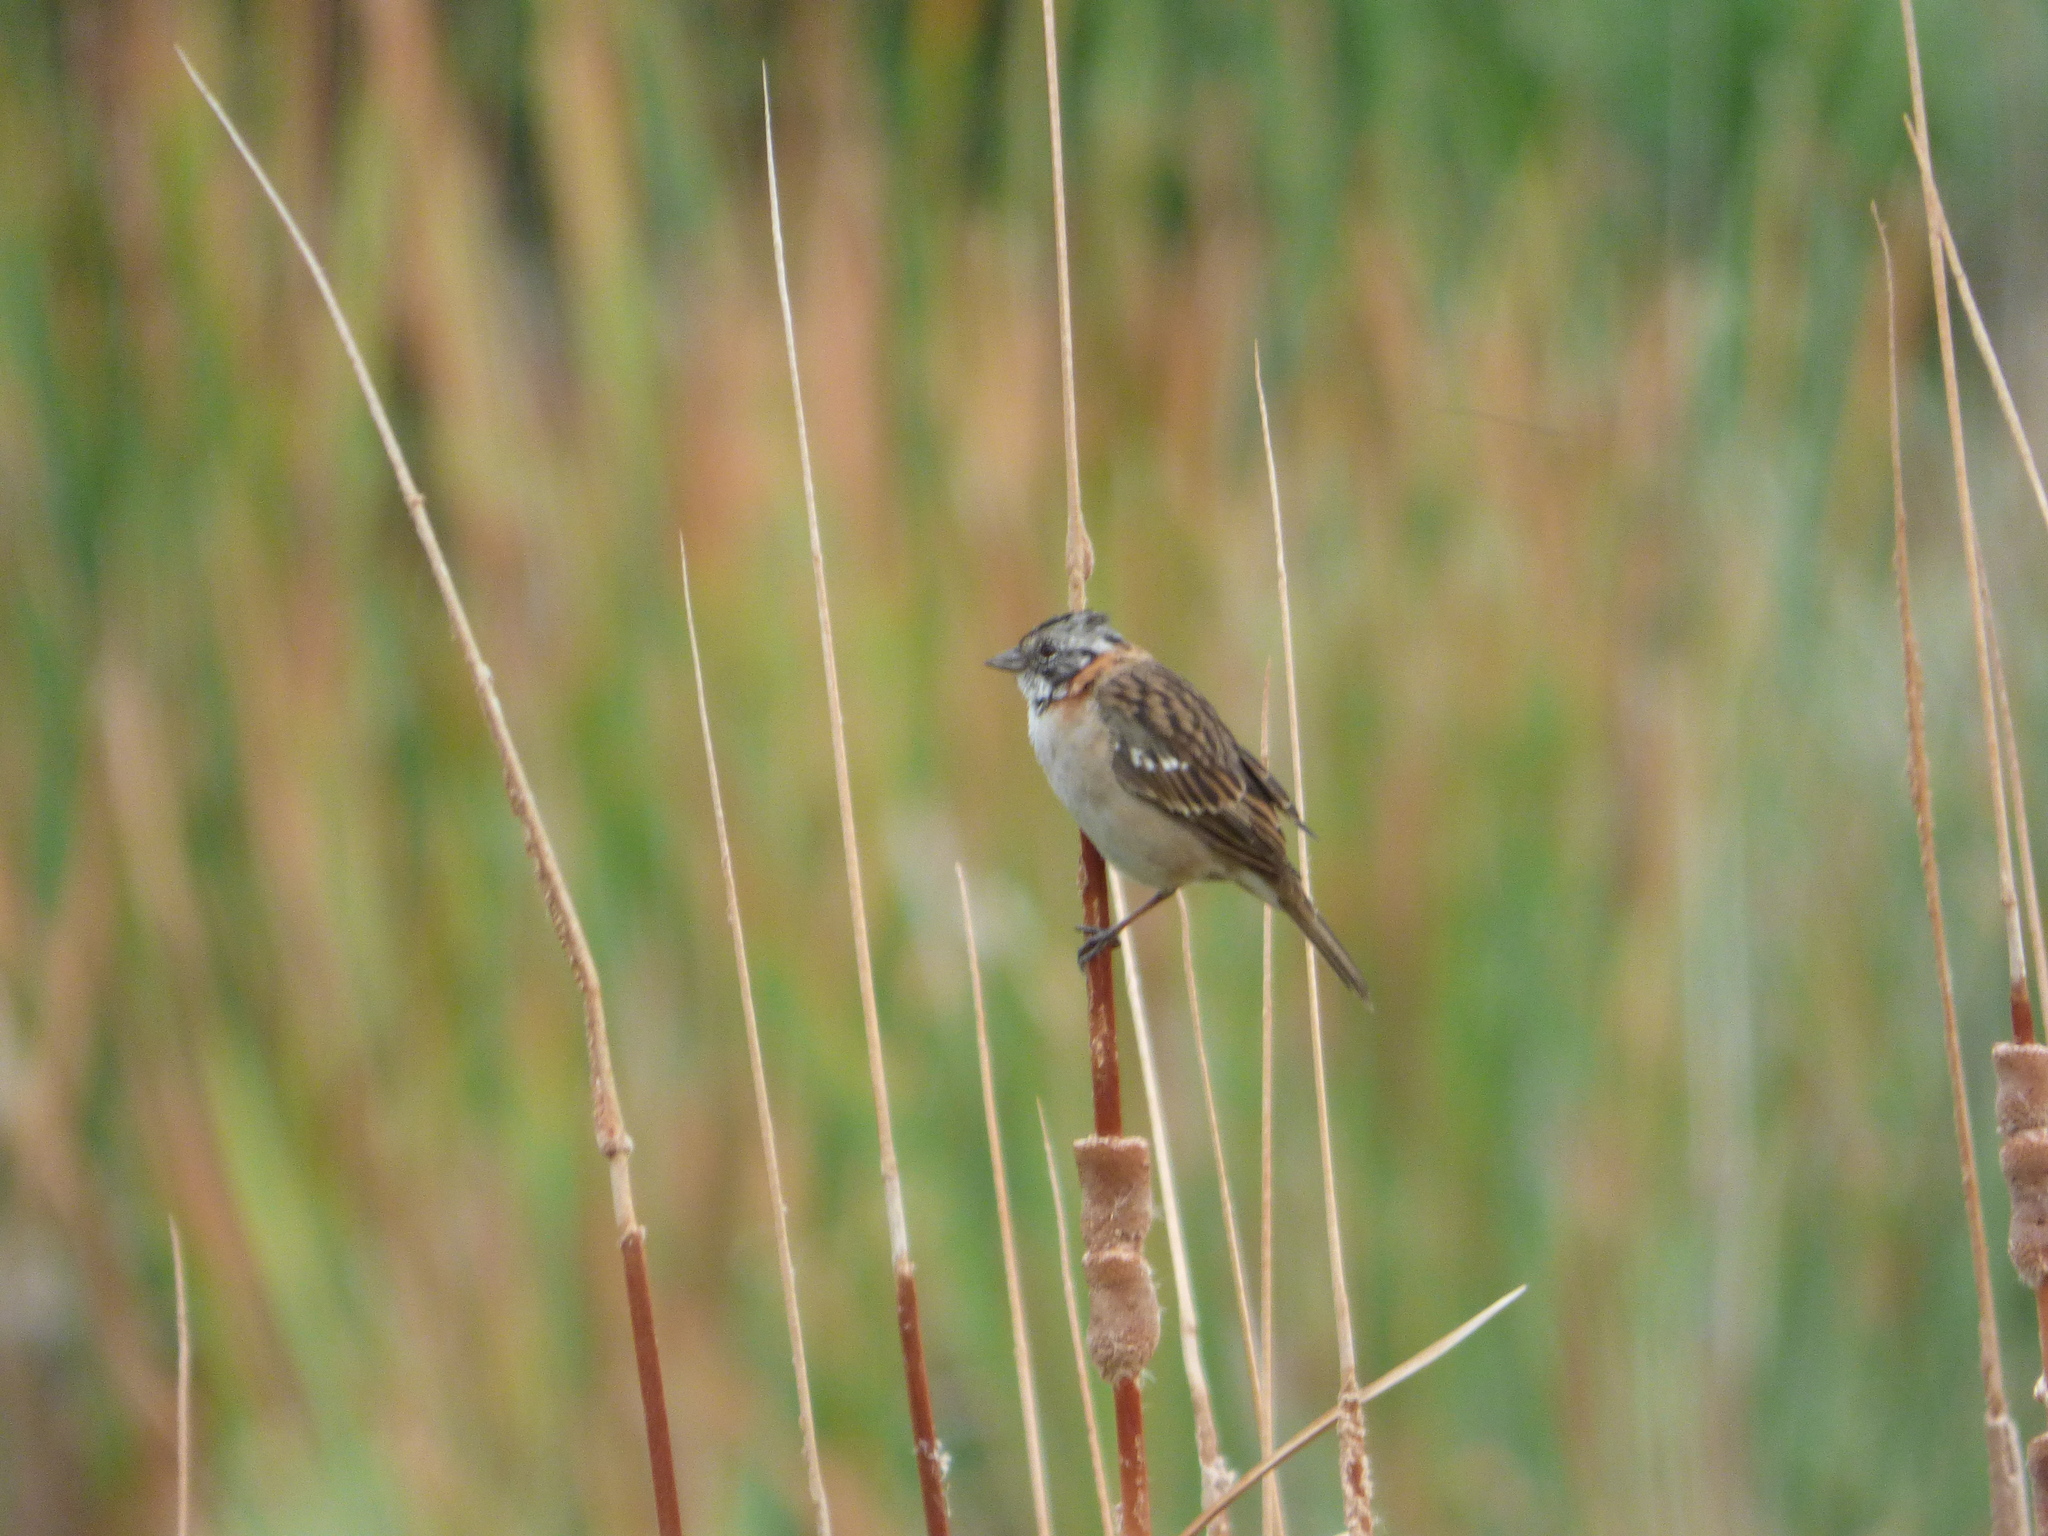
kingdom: Animalia
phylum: Chordata
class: Aves
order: Passeriformes
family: Passerellidae
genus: Zonotrichia
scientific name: Zonotrichia capensis
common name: Rufous-collared sparrow
